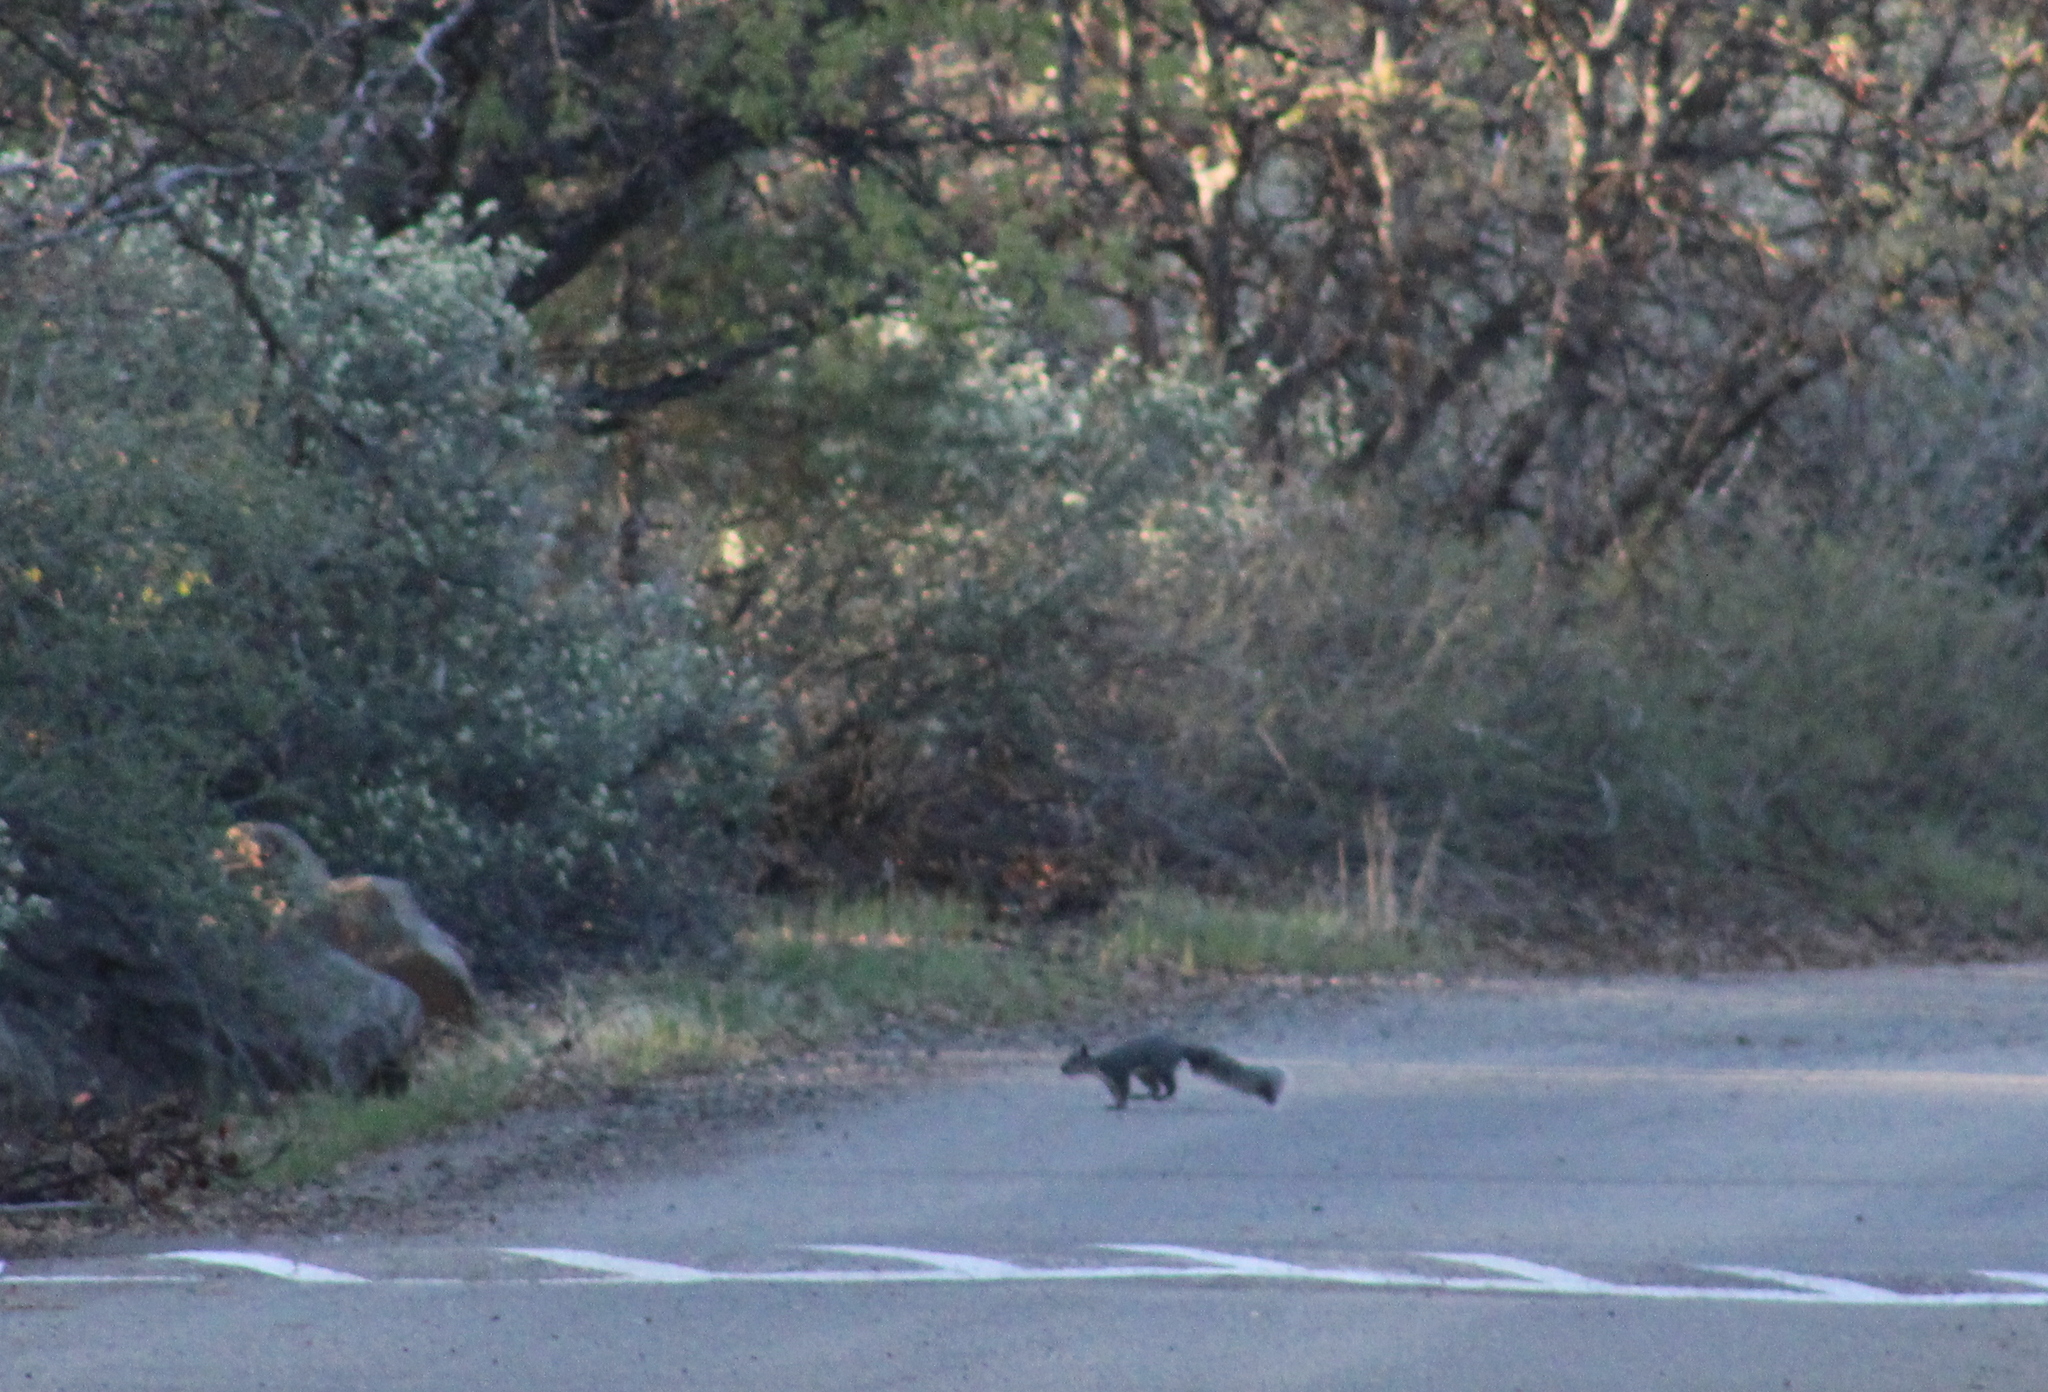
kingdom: Animalia
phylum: Chordata
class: Mammalia
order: Rodentia
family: Sciuridae
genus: Sciurus
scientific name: Sciurus griseus
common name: Western gray squirrel
